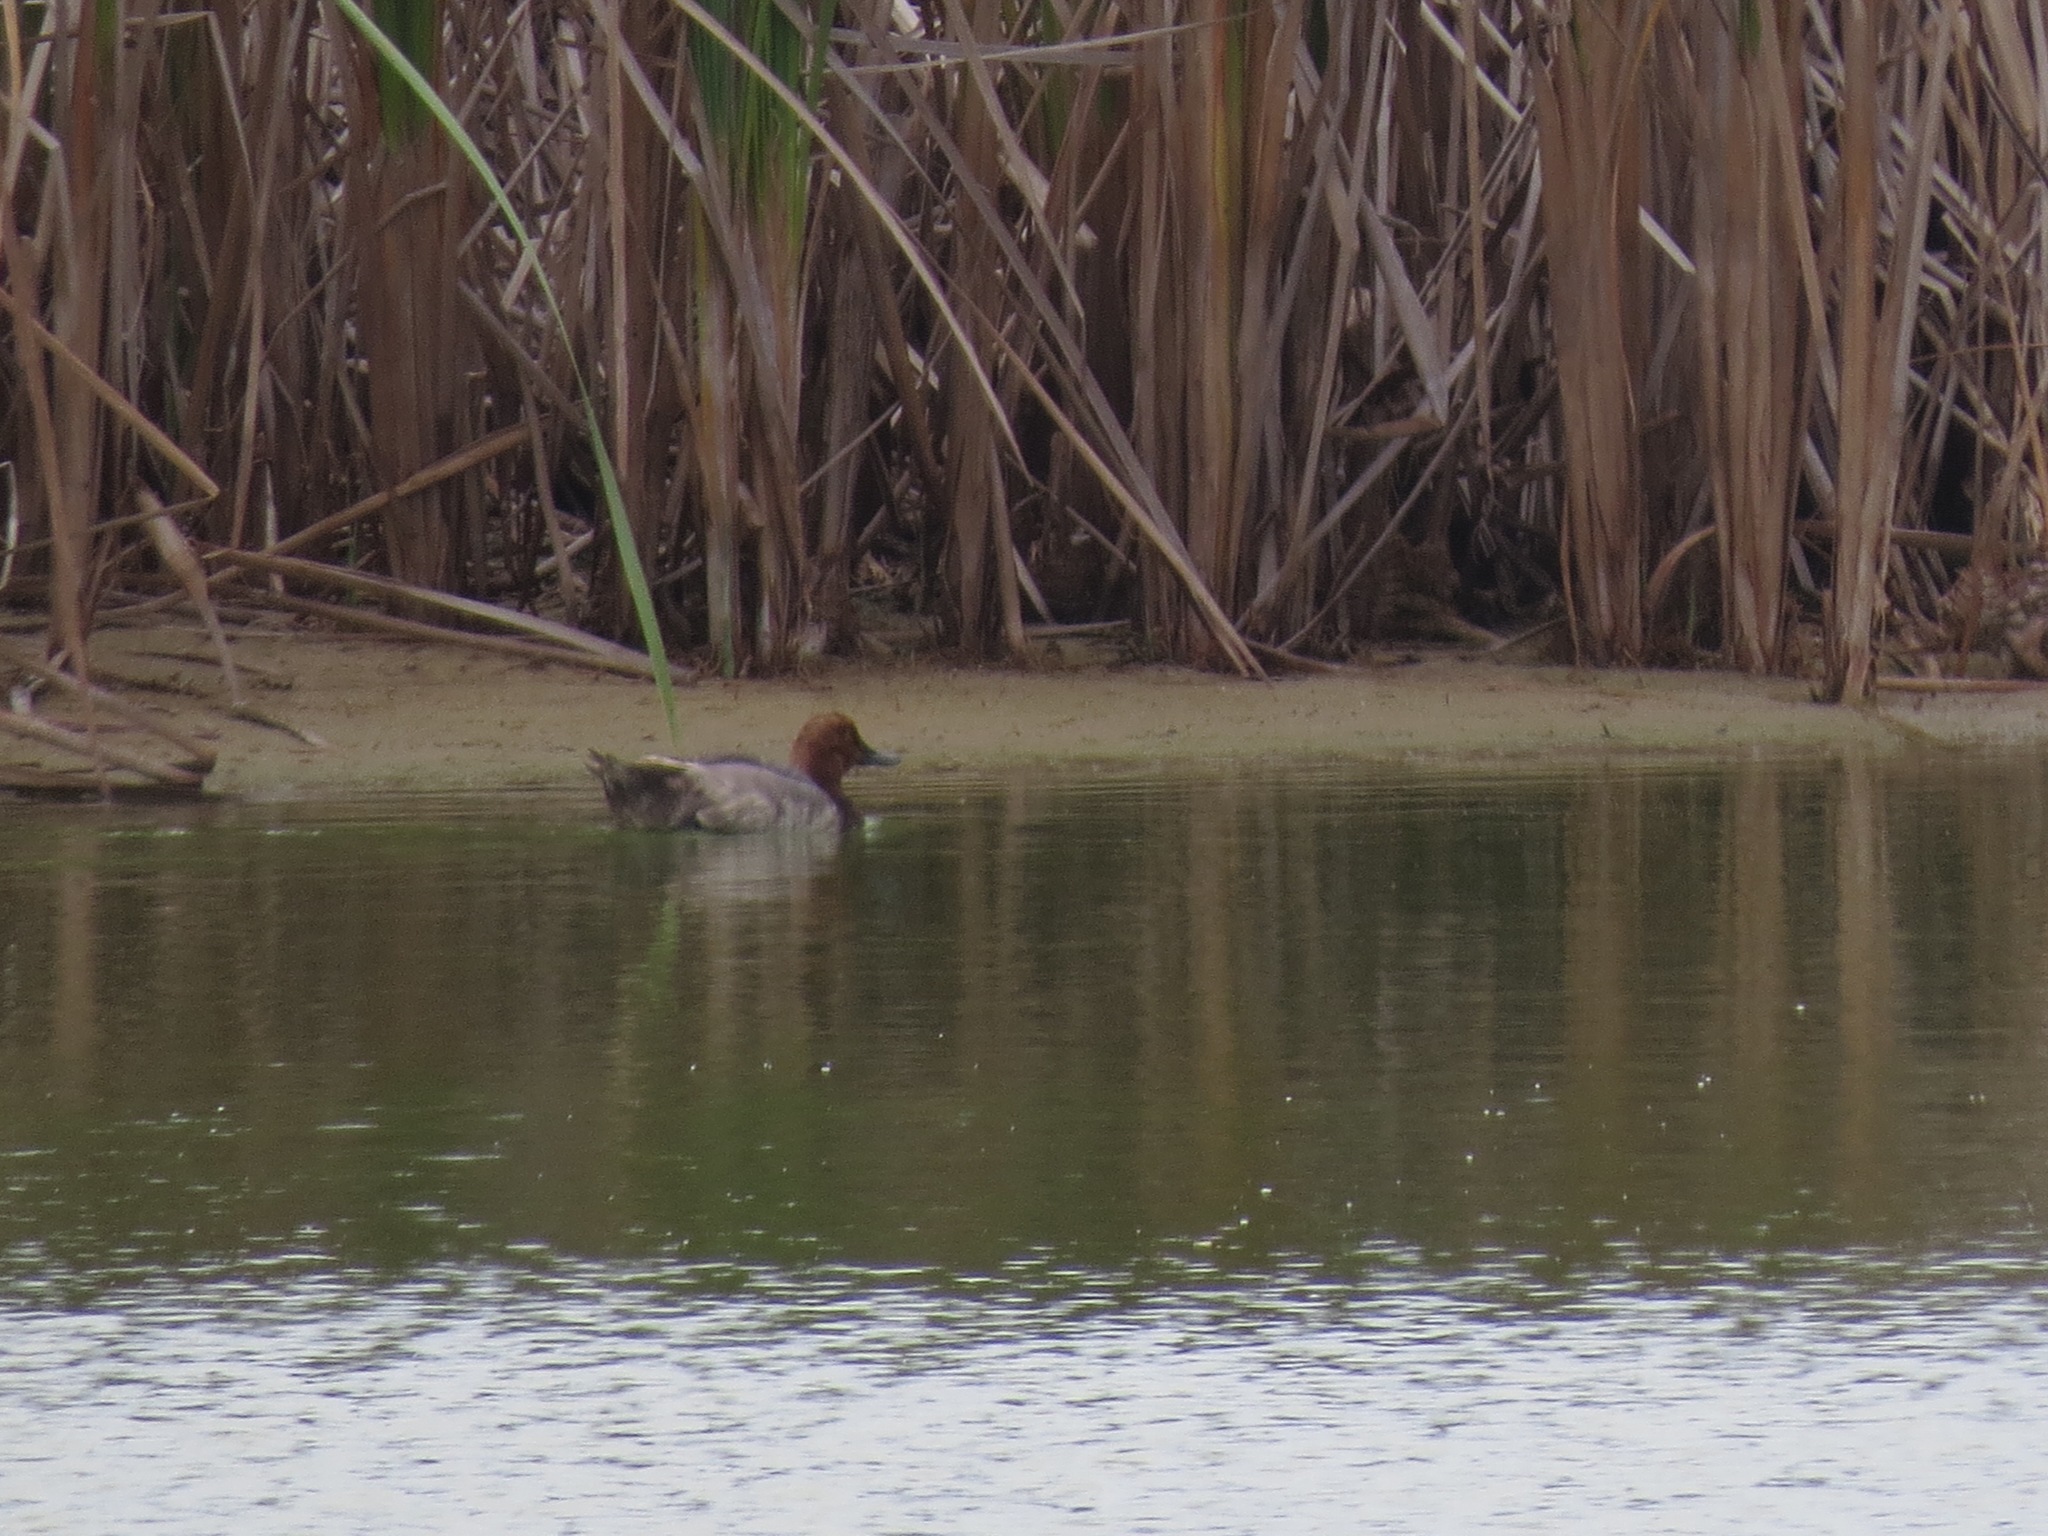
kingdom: Animalia
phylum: Chordata
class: Aves
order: Anseriformes
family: Anatidae
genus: Aythya
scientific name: Aythya americana
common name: Redhead
